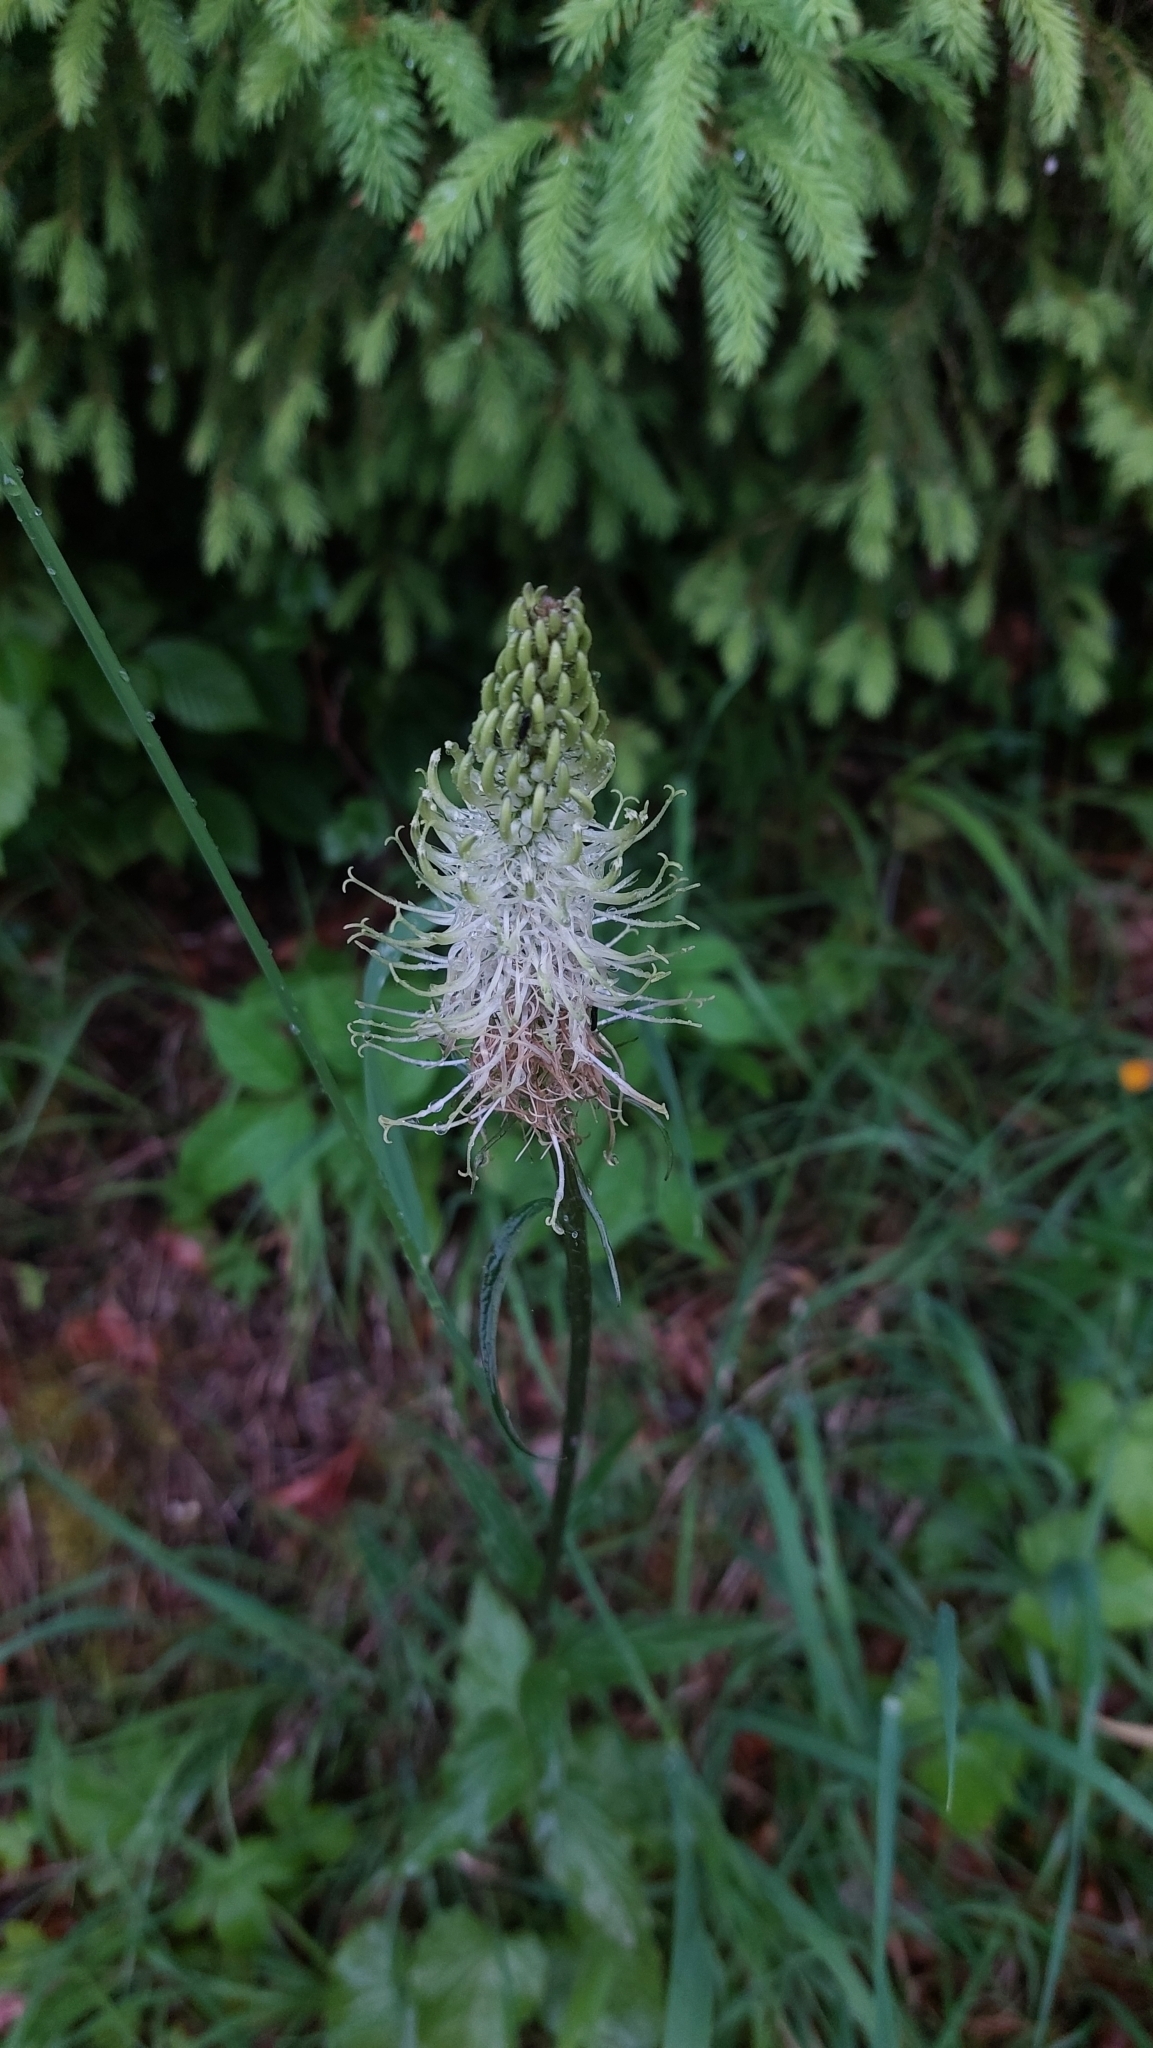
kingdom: Plantae
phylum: Tracheophyta
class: Magnoliopsida
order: Asterales
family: Campanulaceae
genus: Phyteuma
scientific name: Phyteuma spicatum
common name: Spiked rampion
